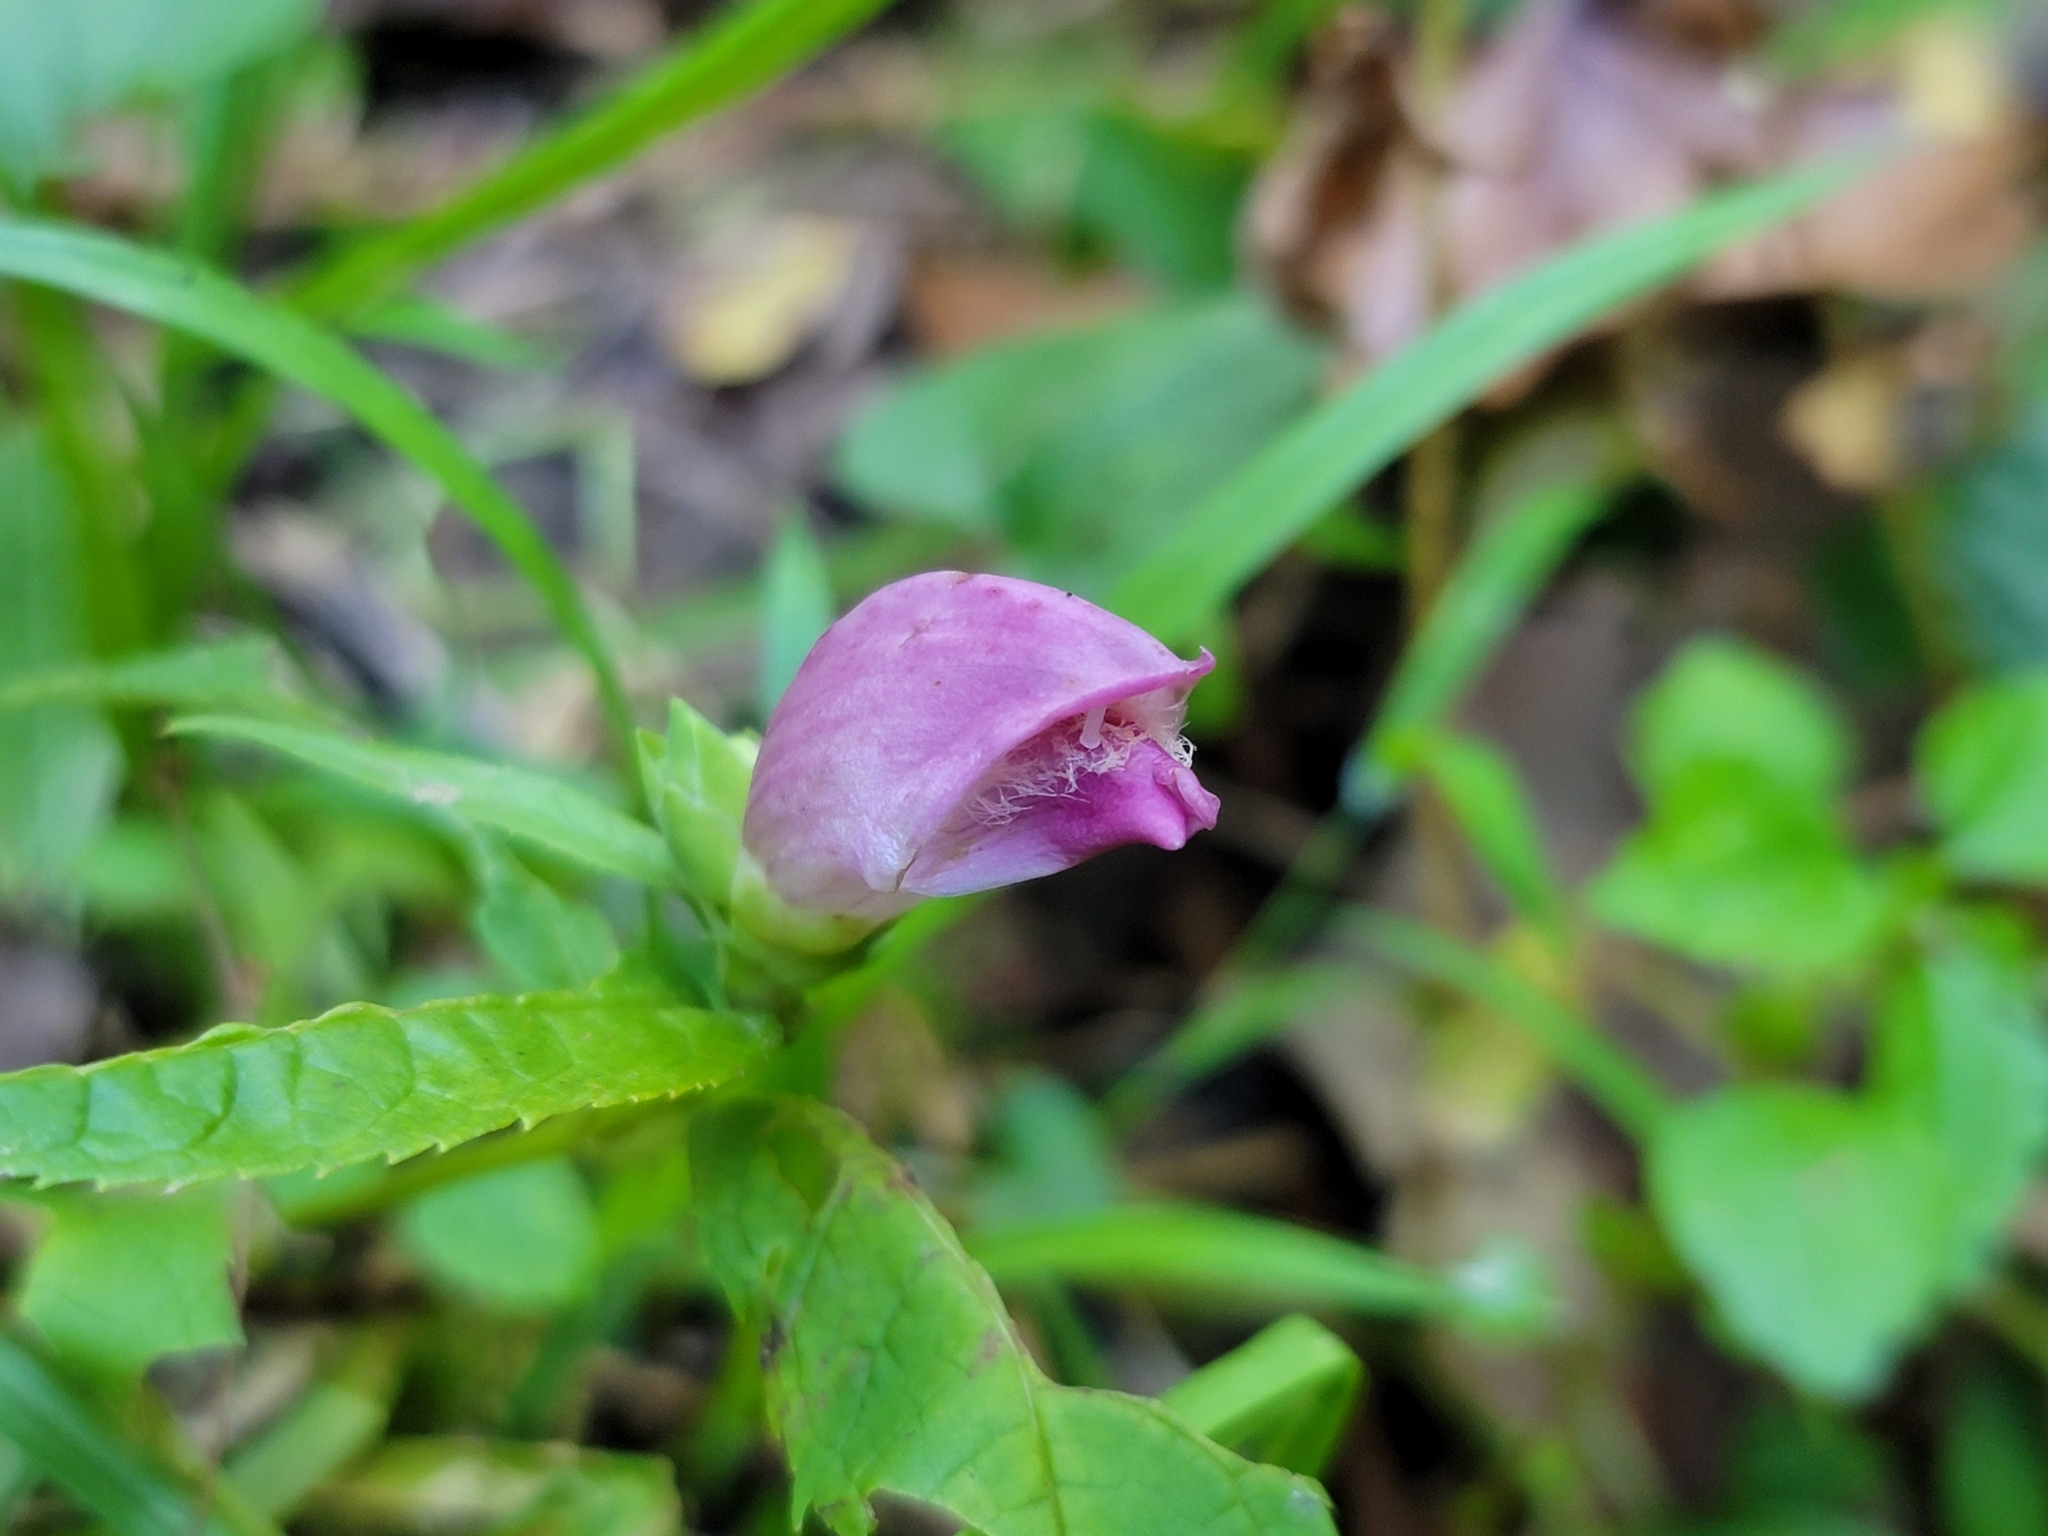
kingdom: Plantae
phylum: Tracheophyta
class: Magnoliopsida
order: Lamiales
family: Plantaginaceae
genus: Chelone
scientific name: Chelone glabra
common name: Snakehead
